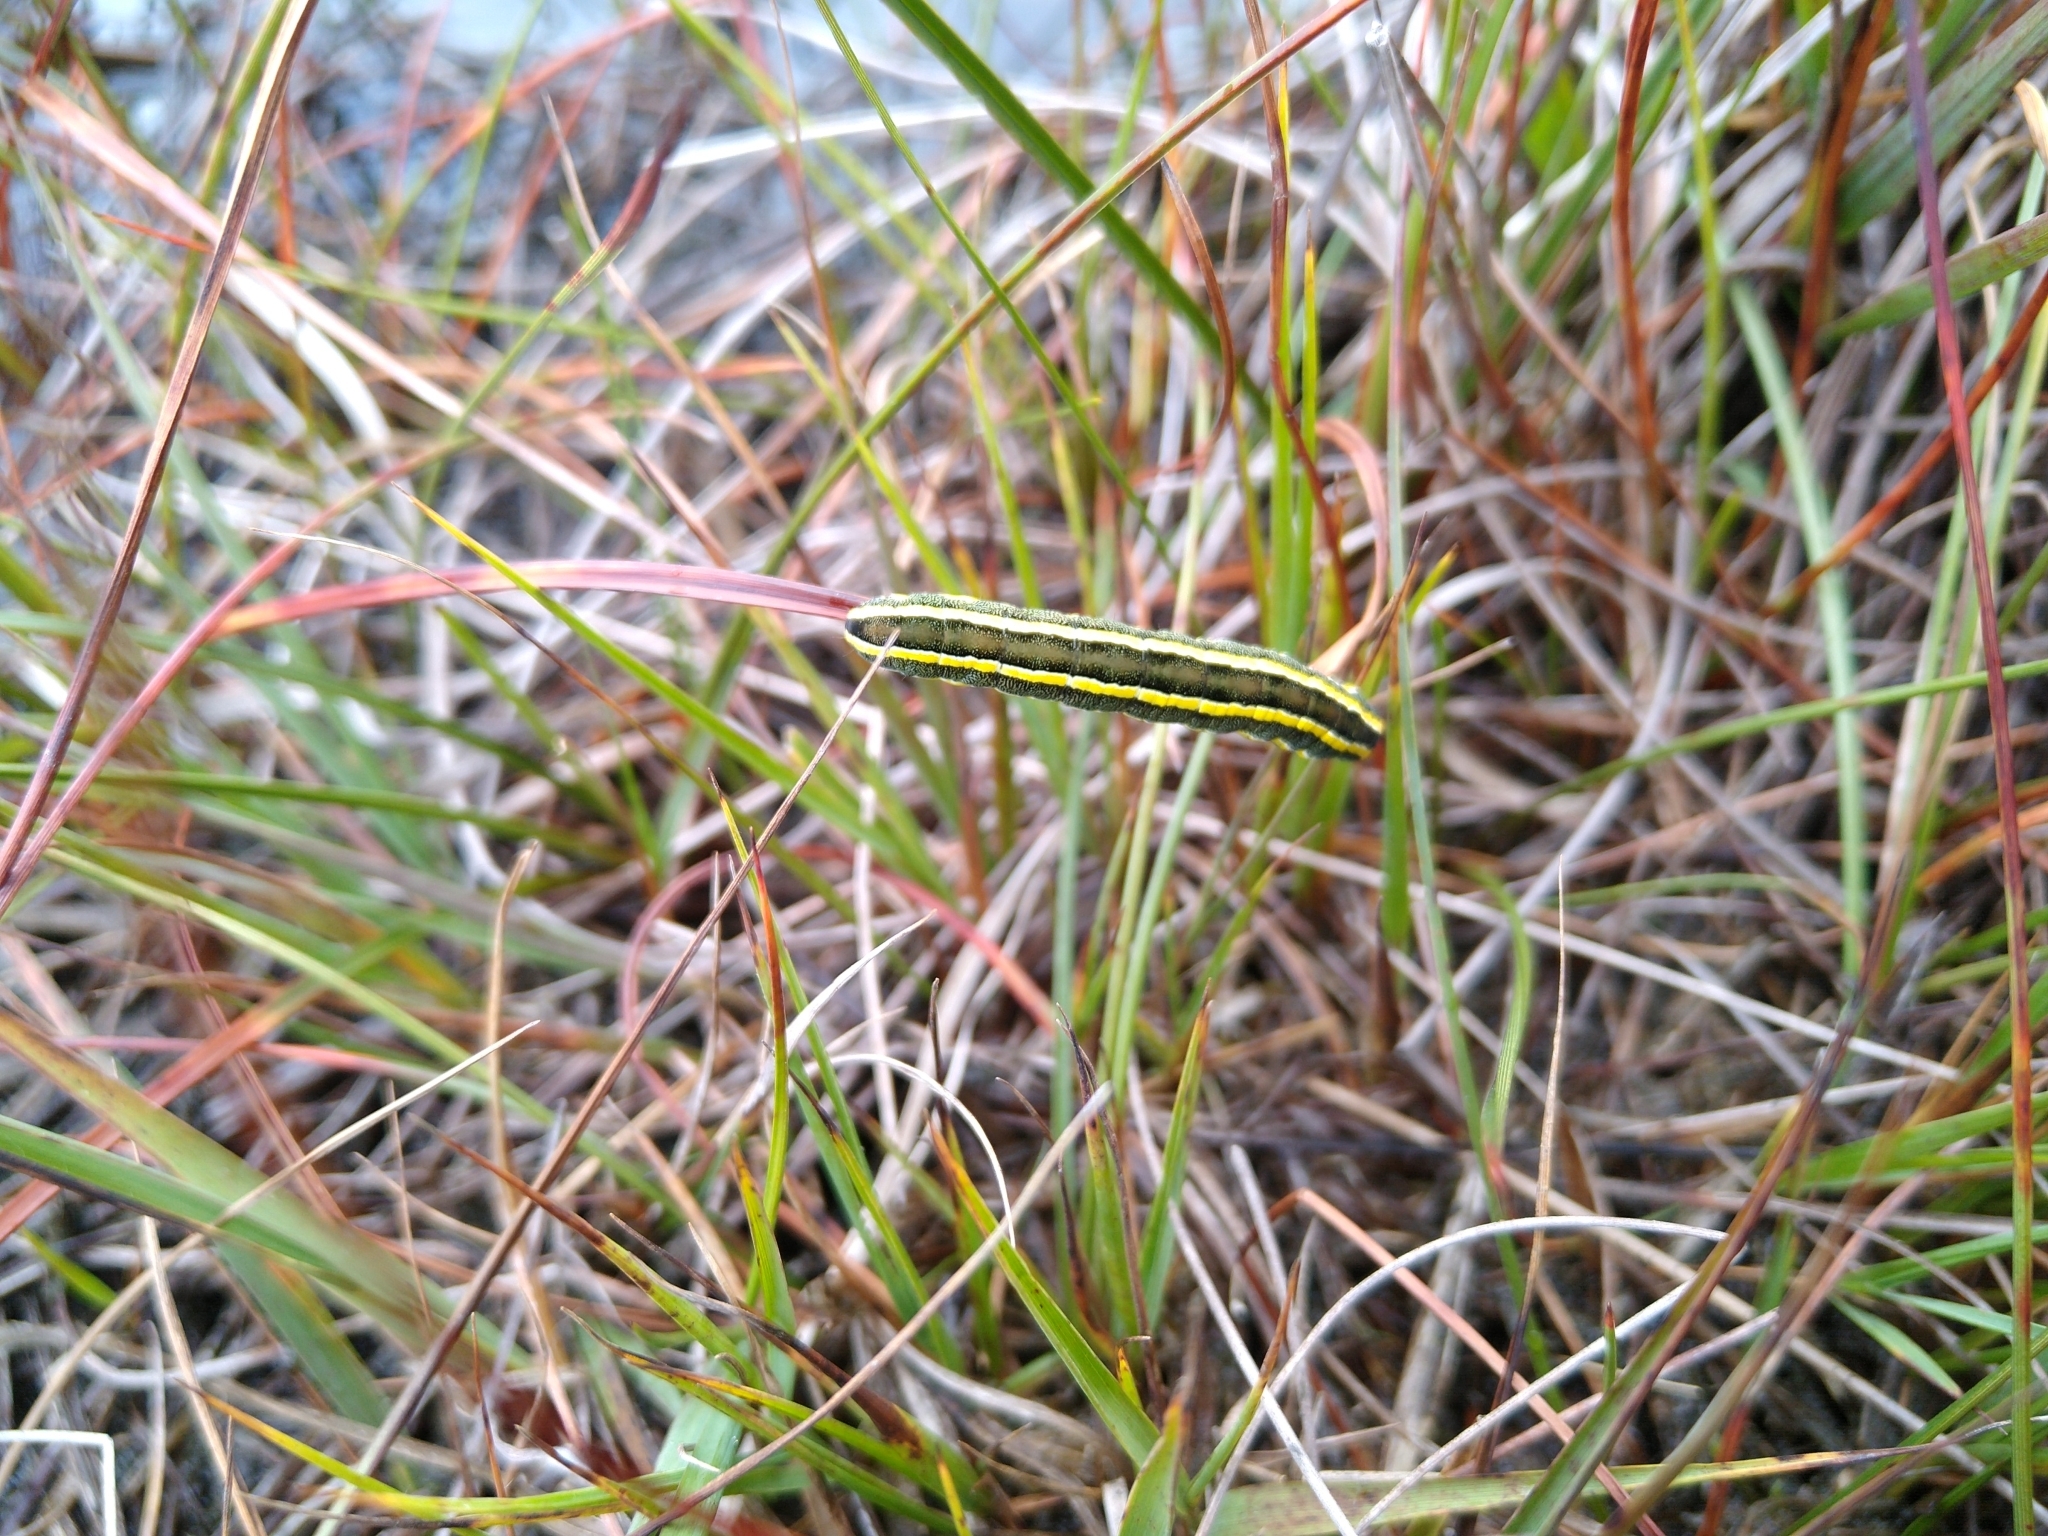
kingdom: Animalia
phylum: Arthropoda
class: Insecta
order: Lepidoptera
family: Noctuidae
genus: Ceramica
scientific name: Ceramica pisi
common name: Broom moth
